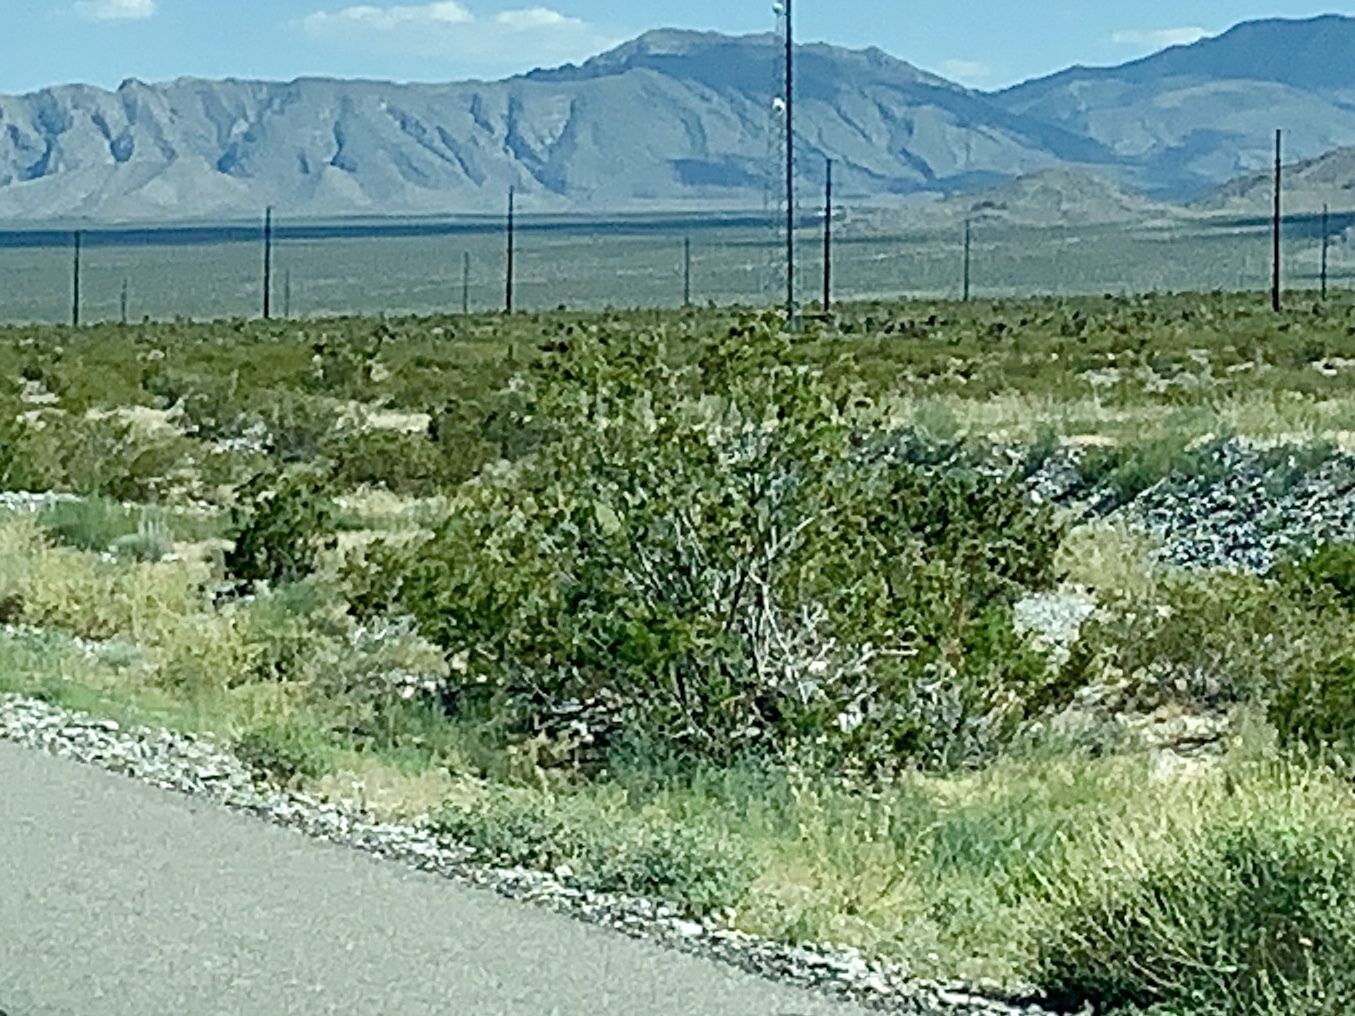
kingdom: Plantae
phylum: Tracheophyta
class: Magnoliopsida
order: Zygophyllales
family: Zygophyllaceae
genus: Larrea
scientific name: Larrea tridentata
